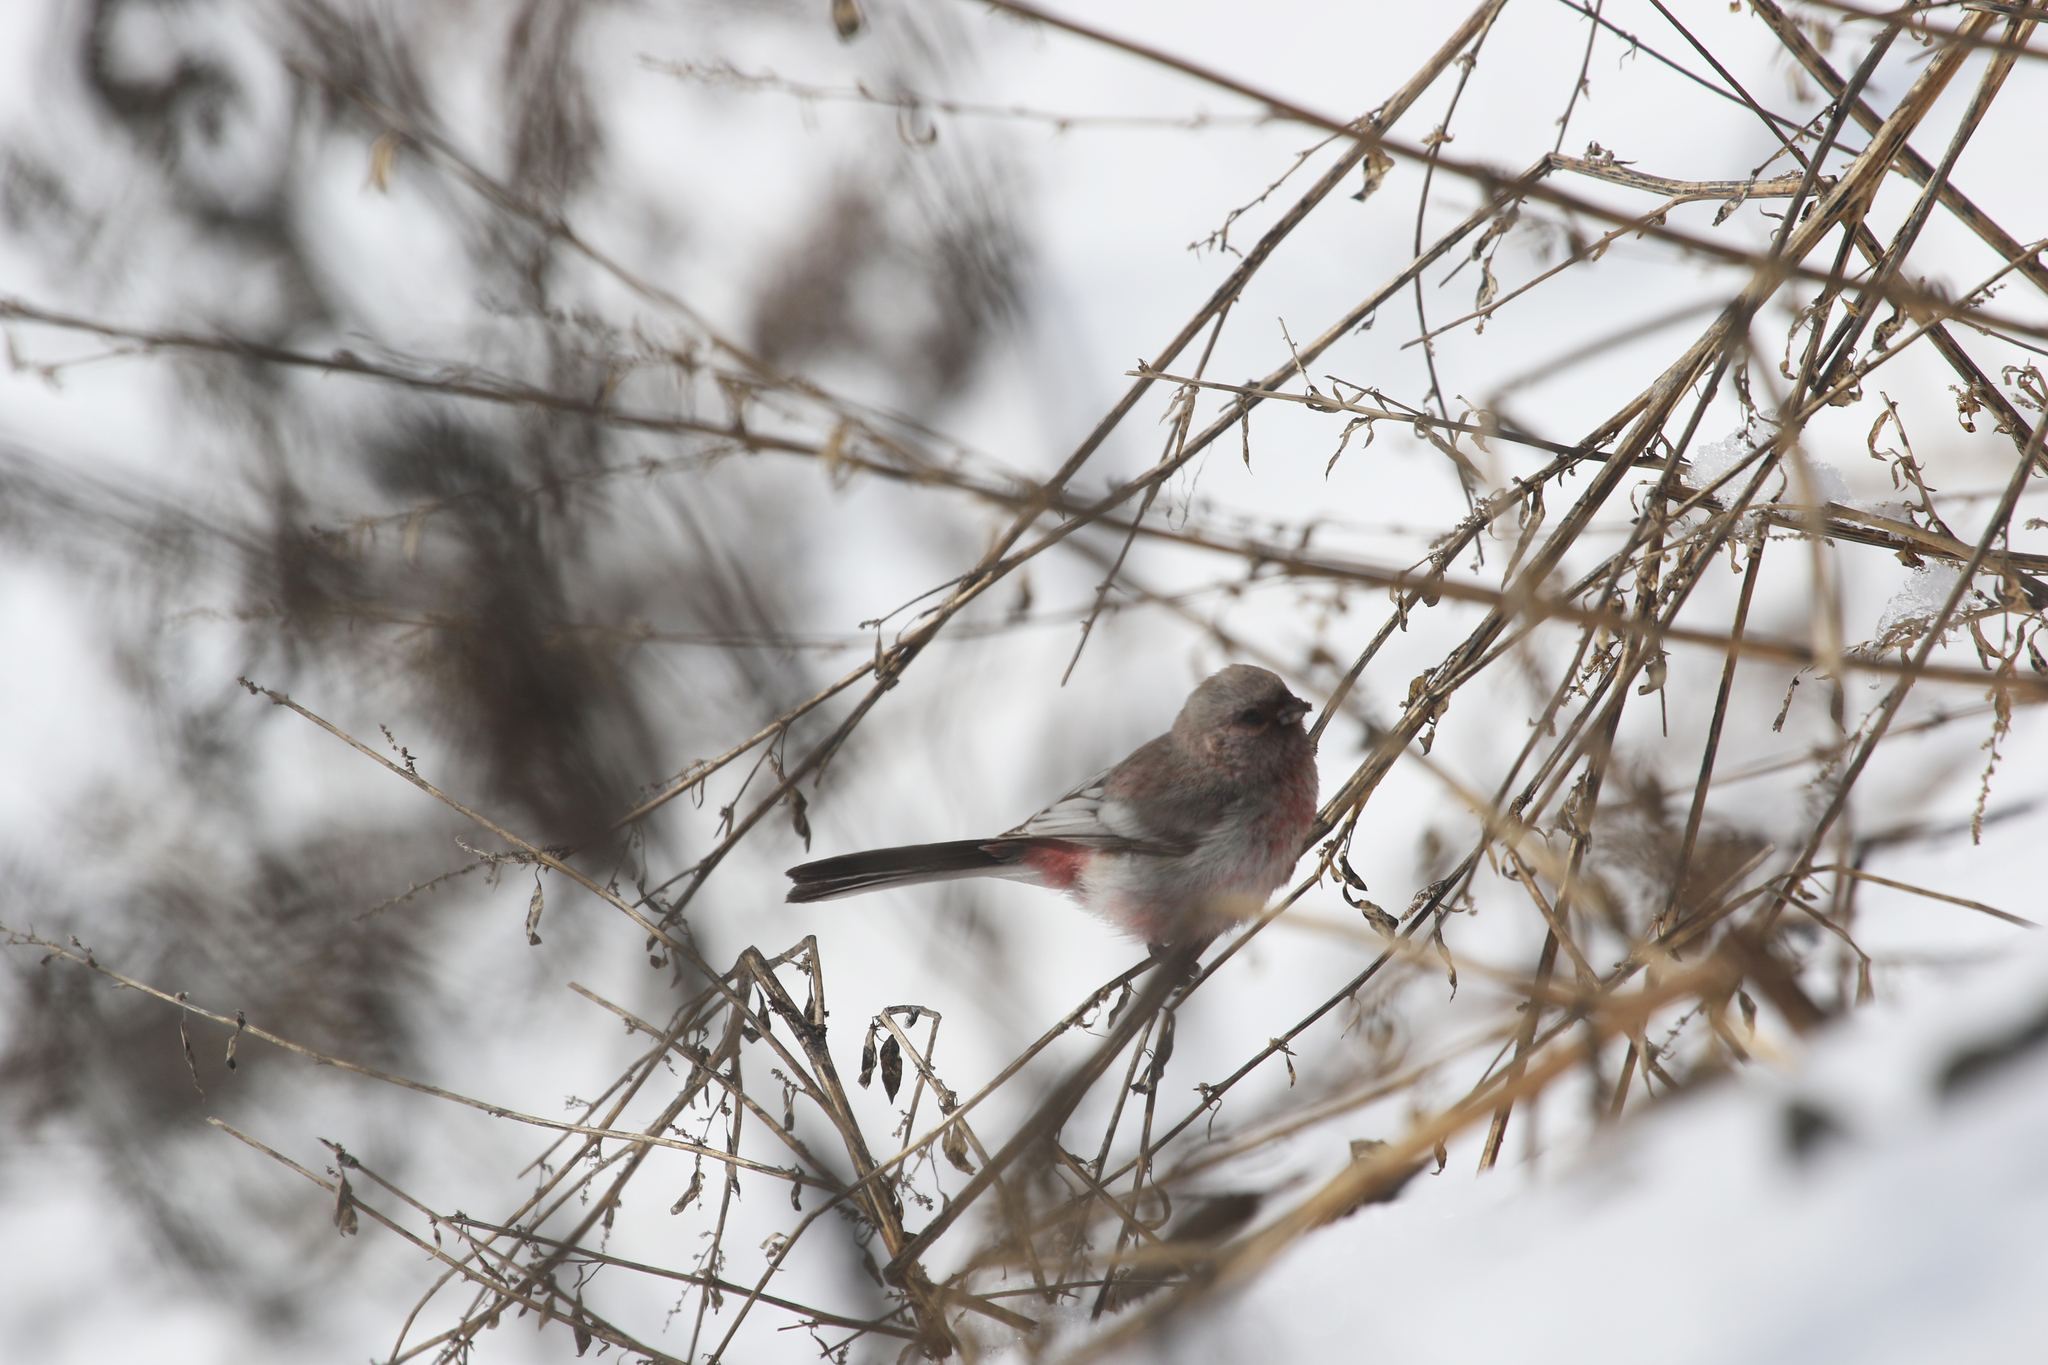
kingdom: Animalia
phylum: Chordata
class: Aves
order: Passeriformes
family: Fringillidae
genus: Carpodacus
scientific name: Carpodacus sibiricus
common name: Long-tailed rosefinch
